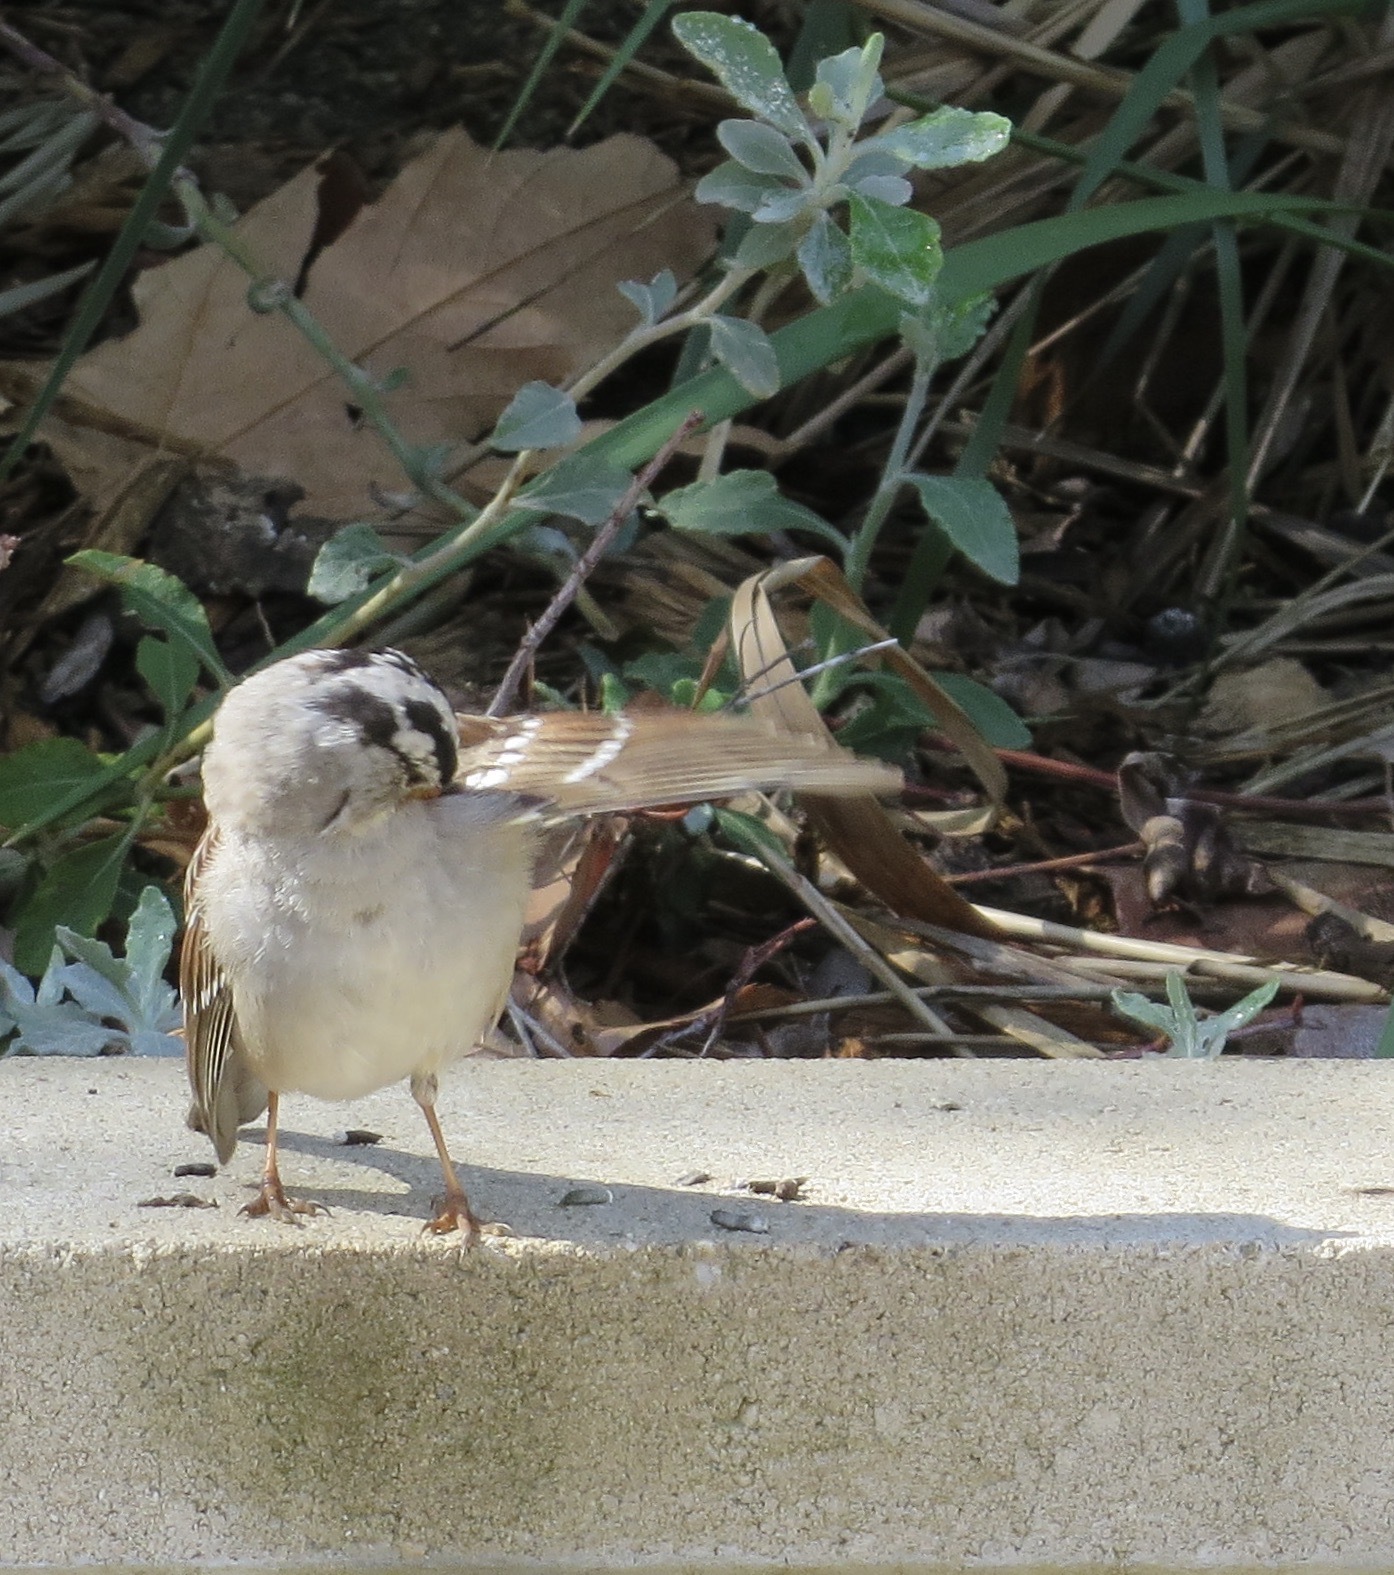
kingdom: Animalia
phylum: Chordata
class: Aves
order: Passeriformes
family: Passerellidae
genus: Zonotrichia
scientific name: Zonotrichia leucophrys
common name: White-crowned sparrow
